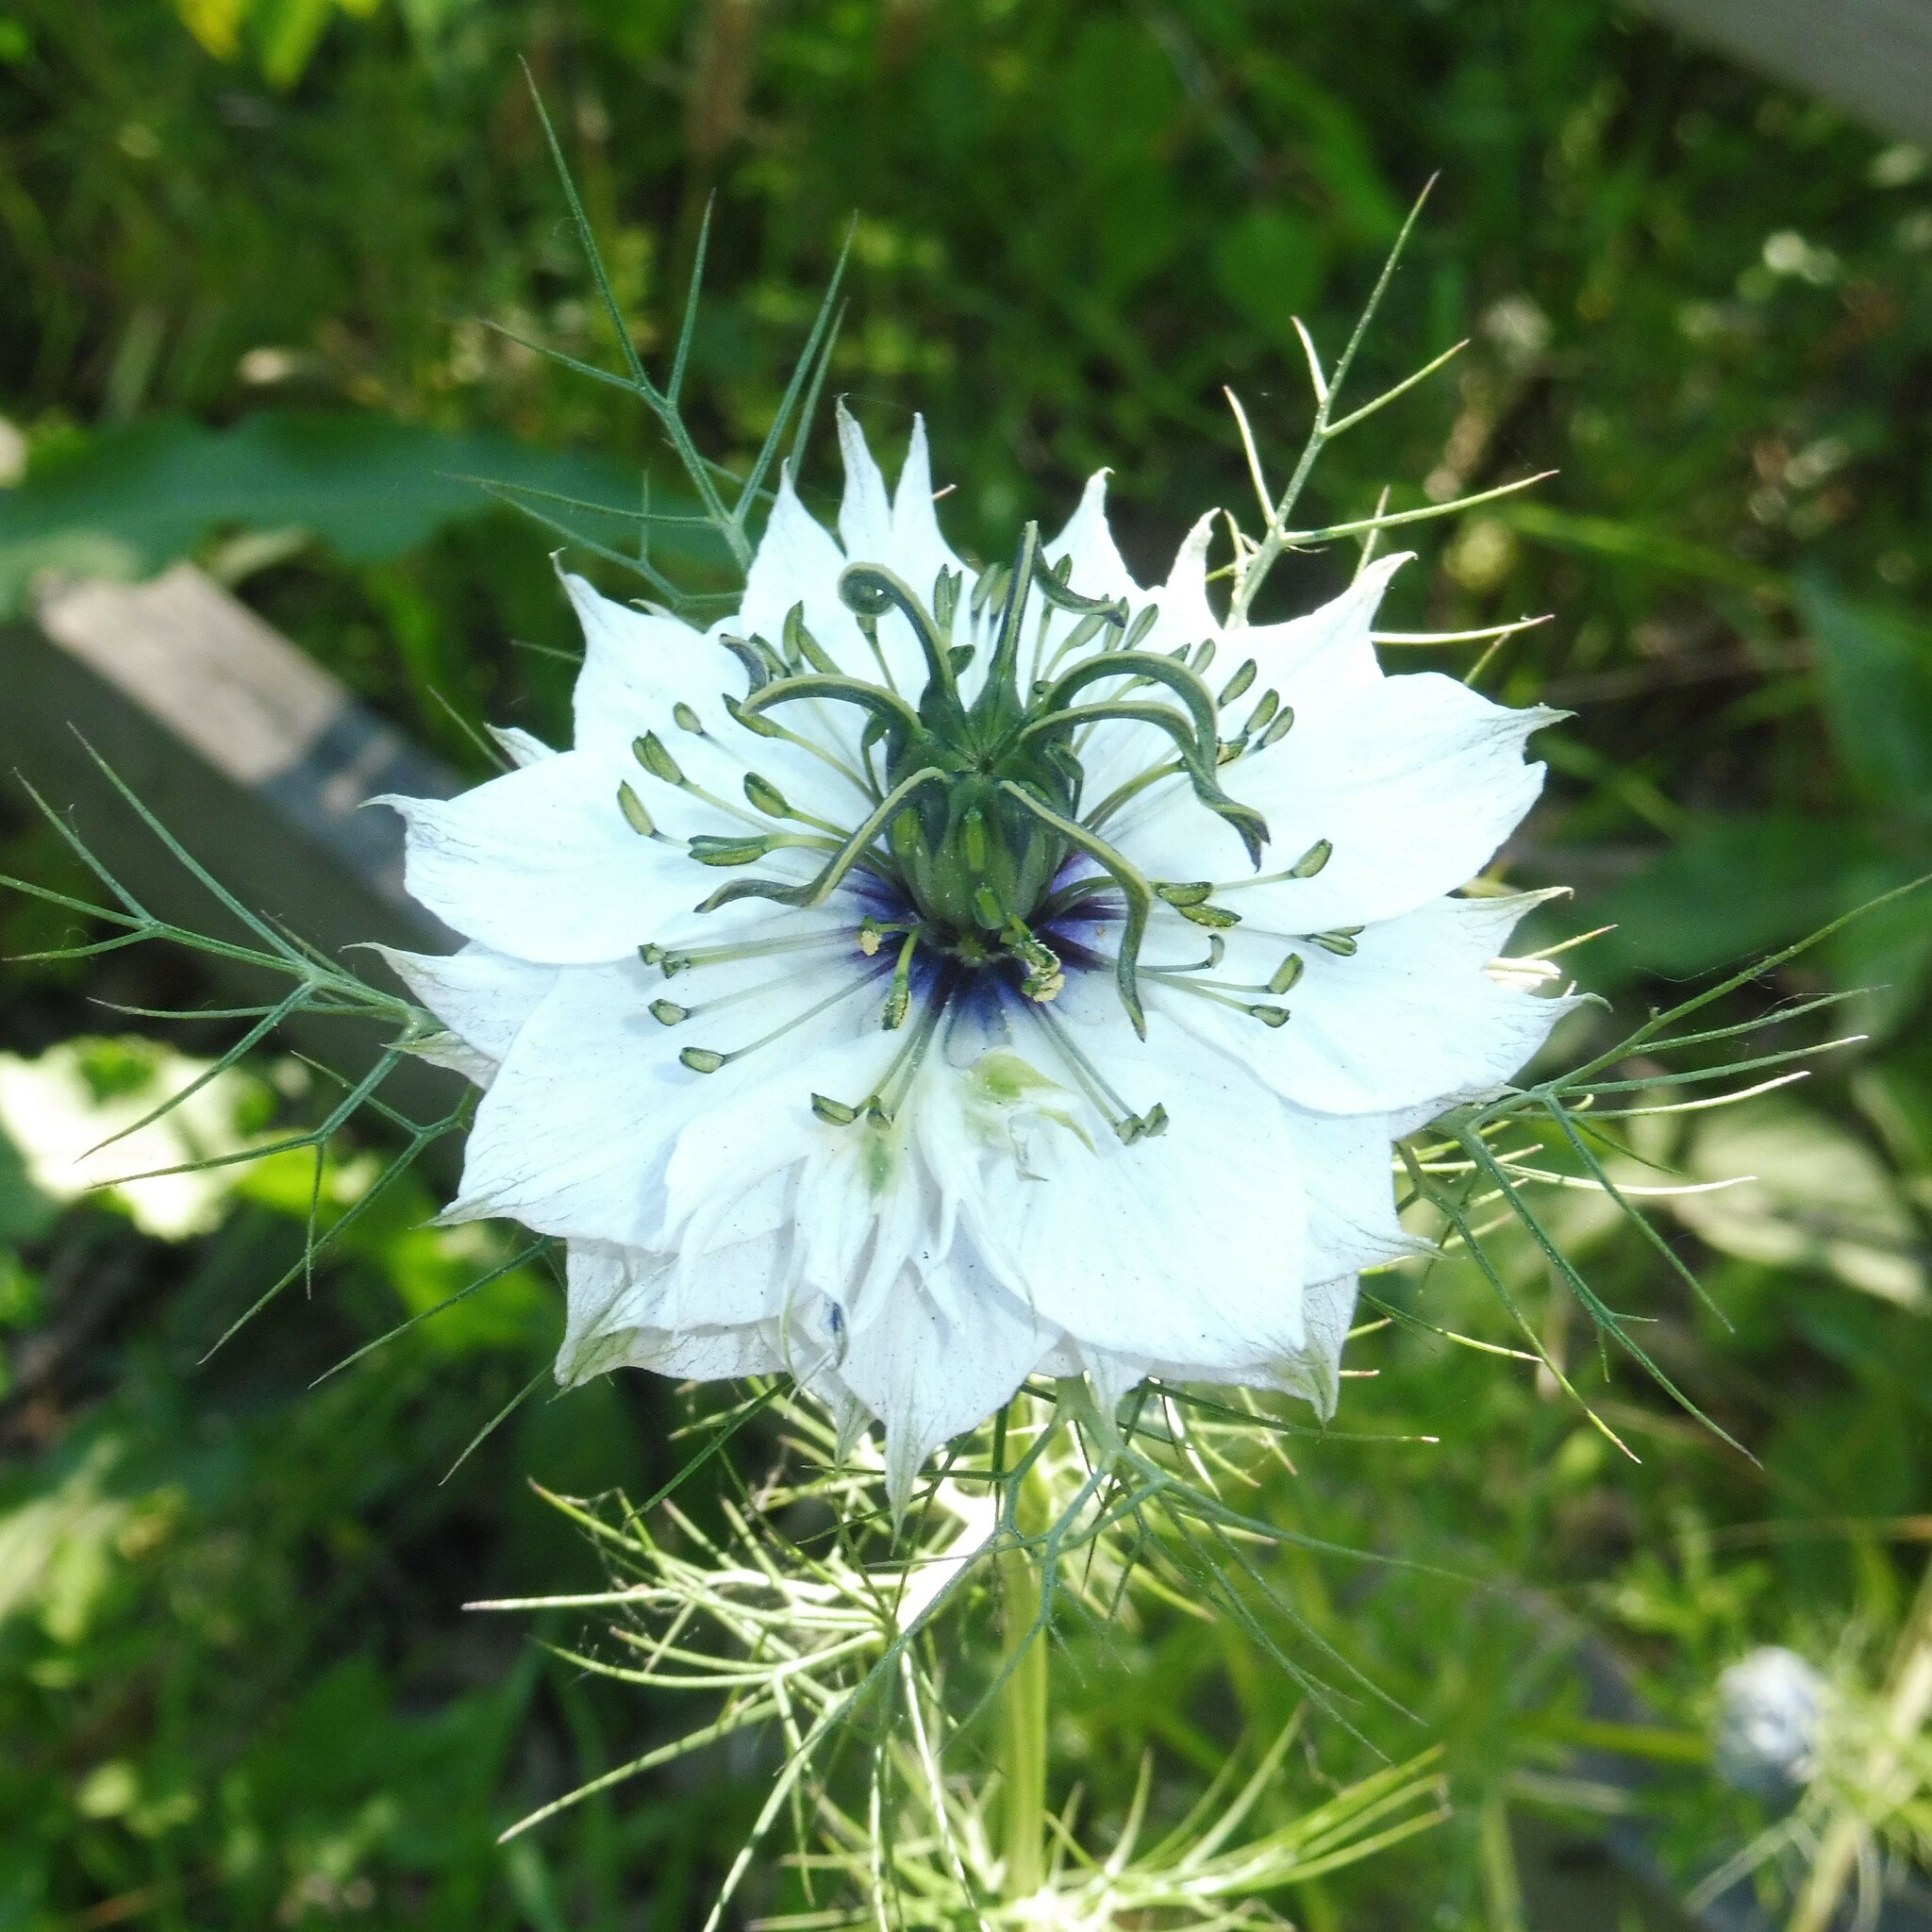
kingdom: Plantae
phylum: Tracheophyta
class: Magnoliopsida
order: Ranunculales
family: Ranunculaceae
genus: Nigella
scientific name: Nigella damascena
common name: Love-in-a-mist
